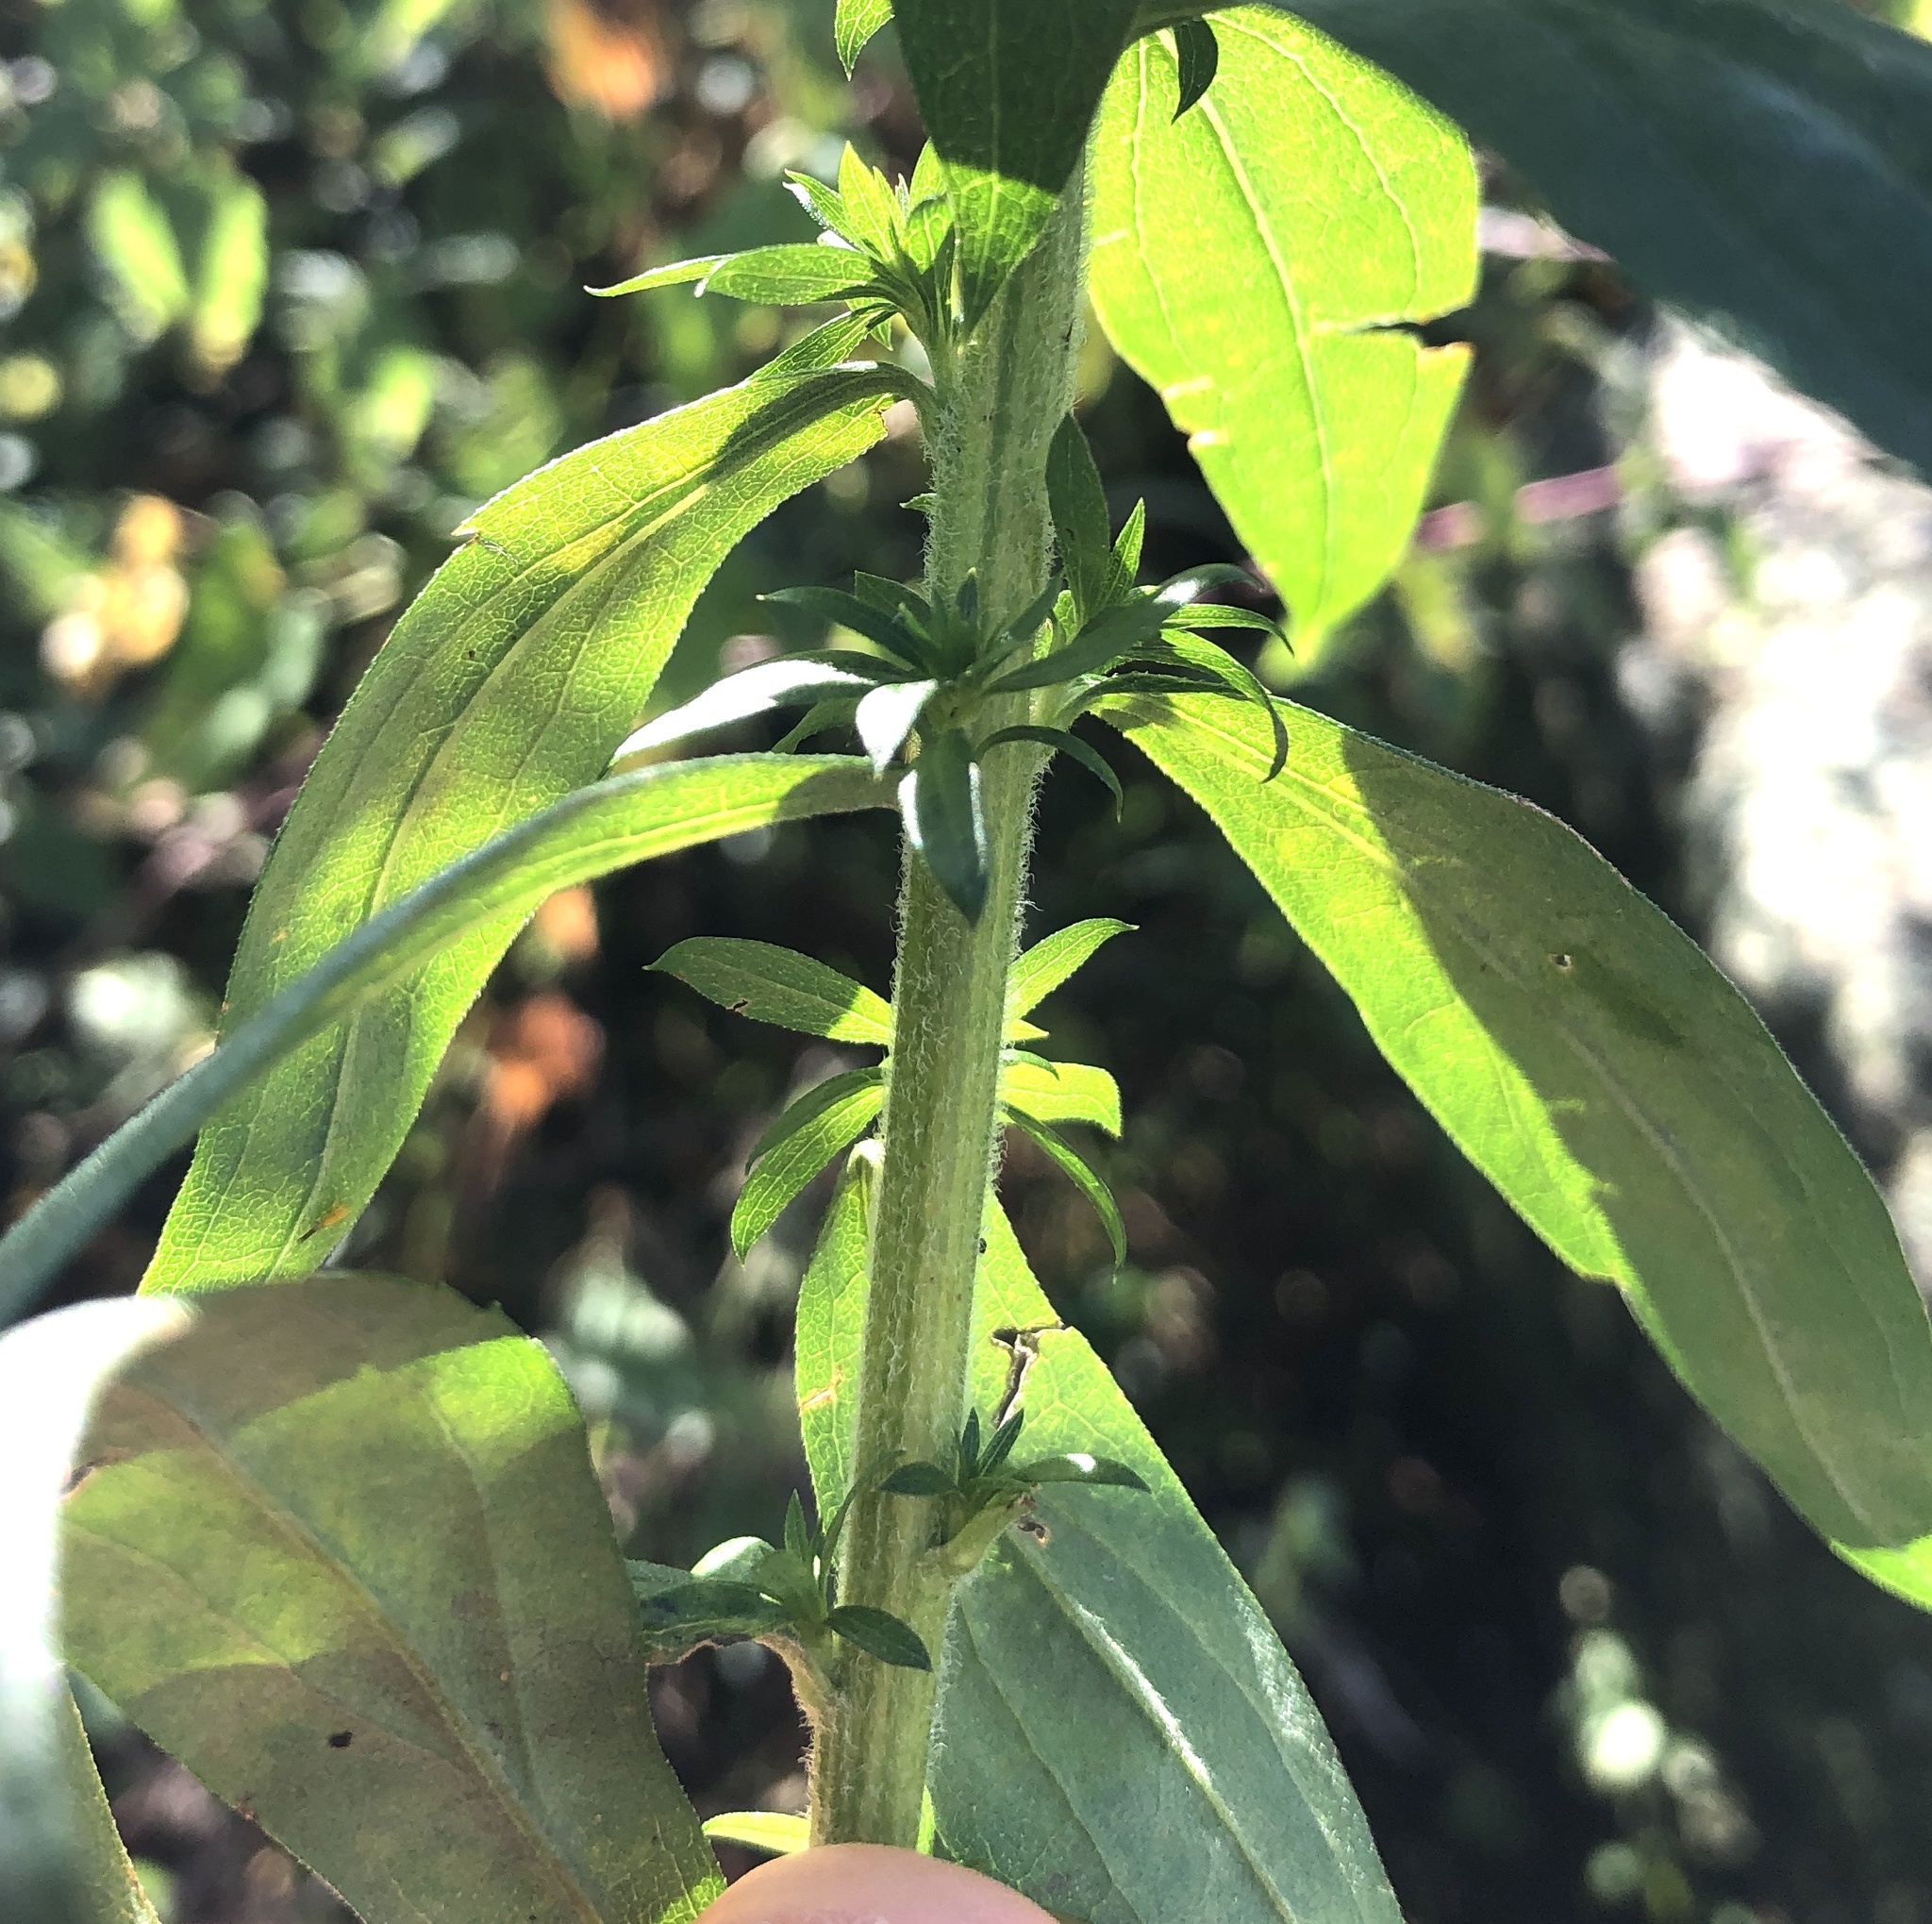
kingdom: Plantae
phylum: Tracheophyta
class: Magnoliopsida
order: Asterales
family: Asteraceae
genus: Solidago
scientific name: Solidago canadensis
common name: Canada goldenrod
